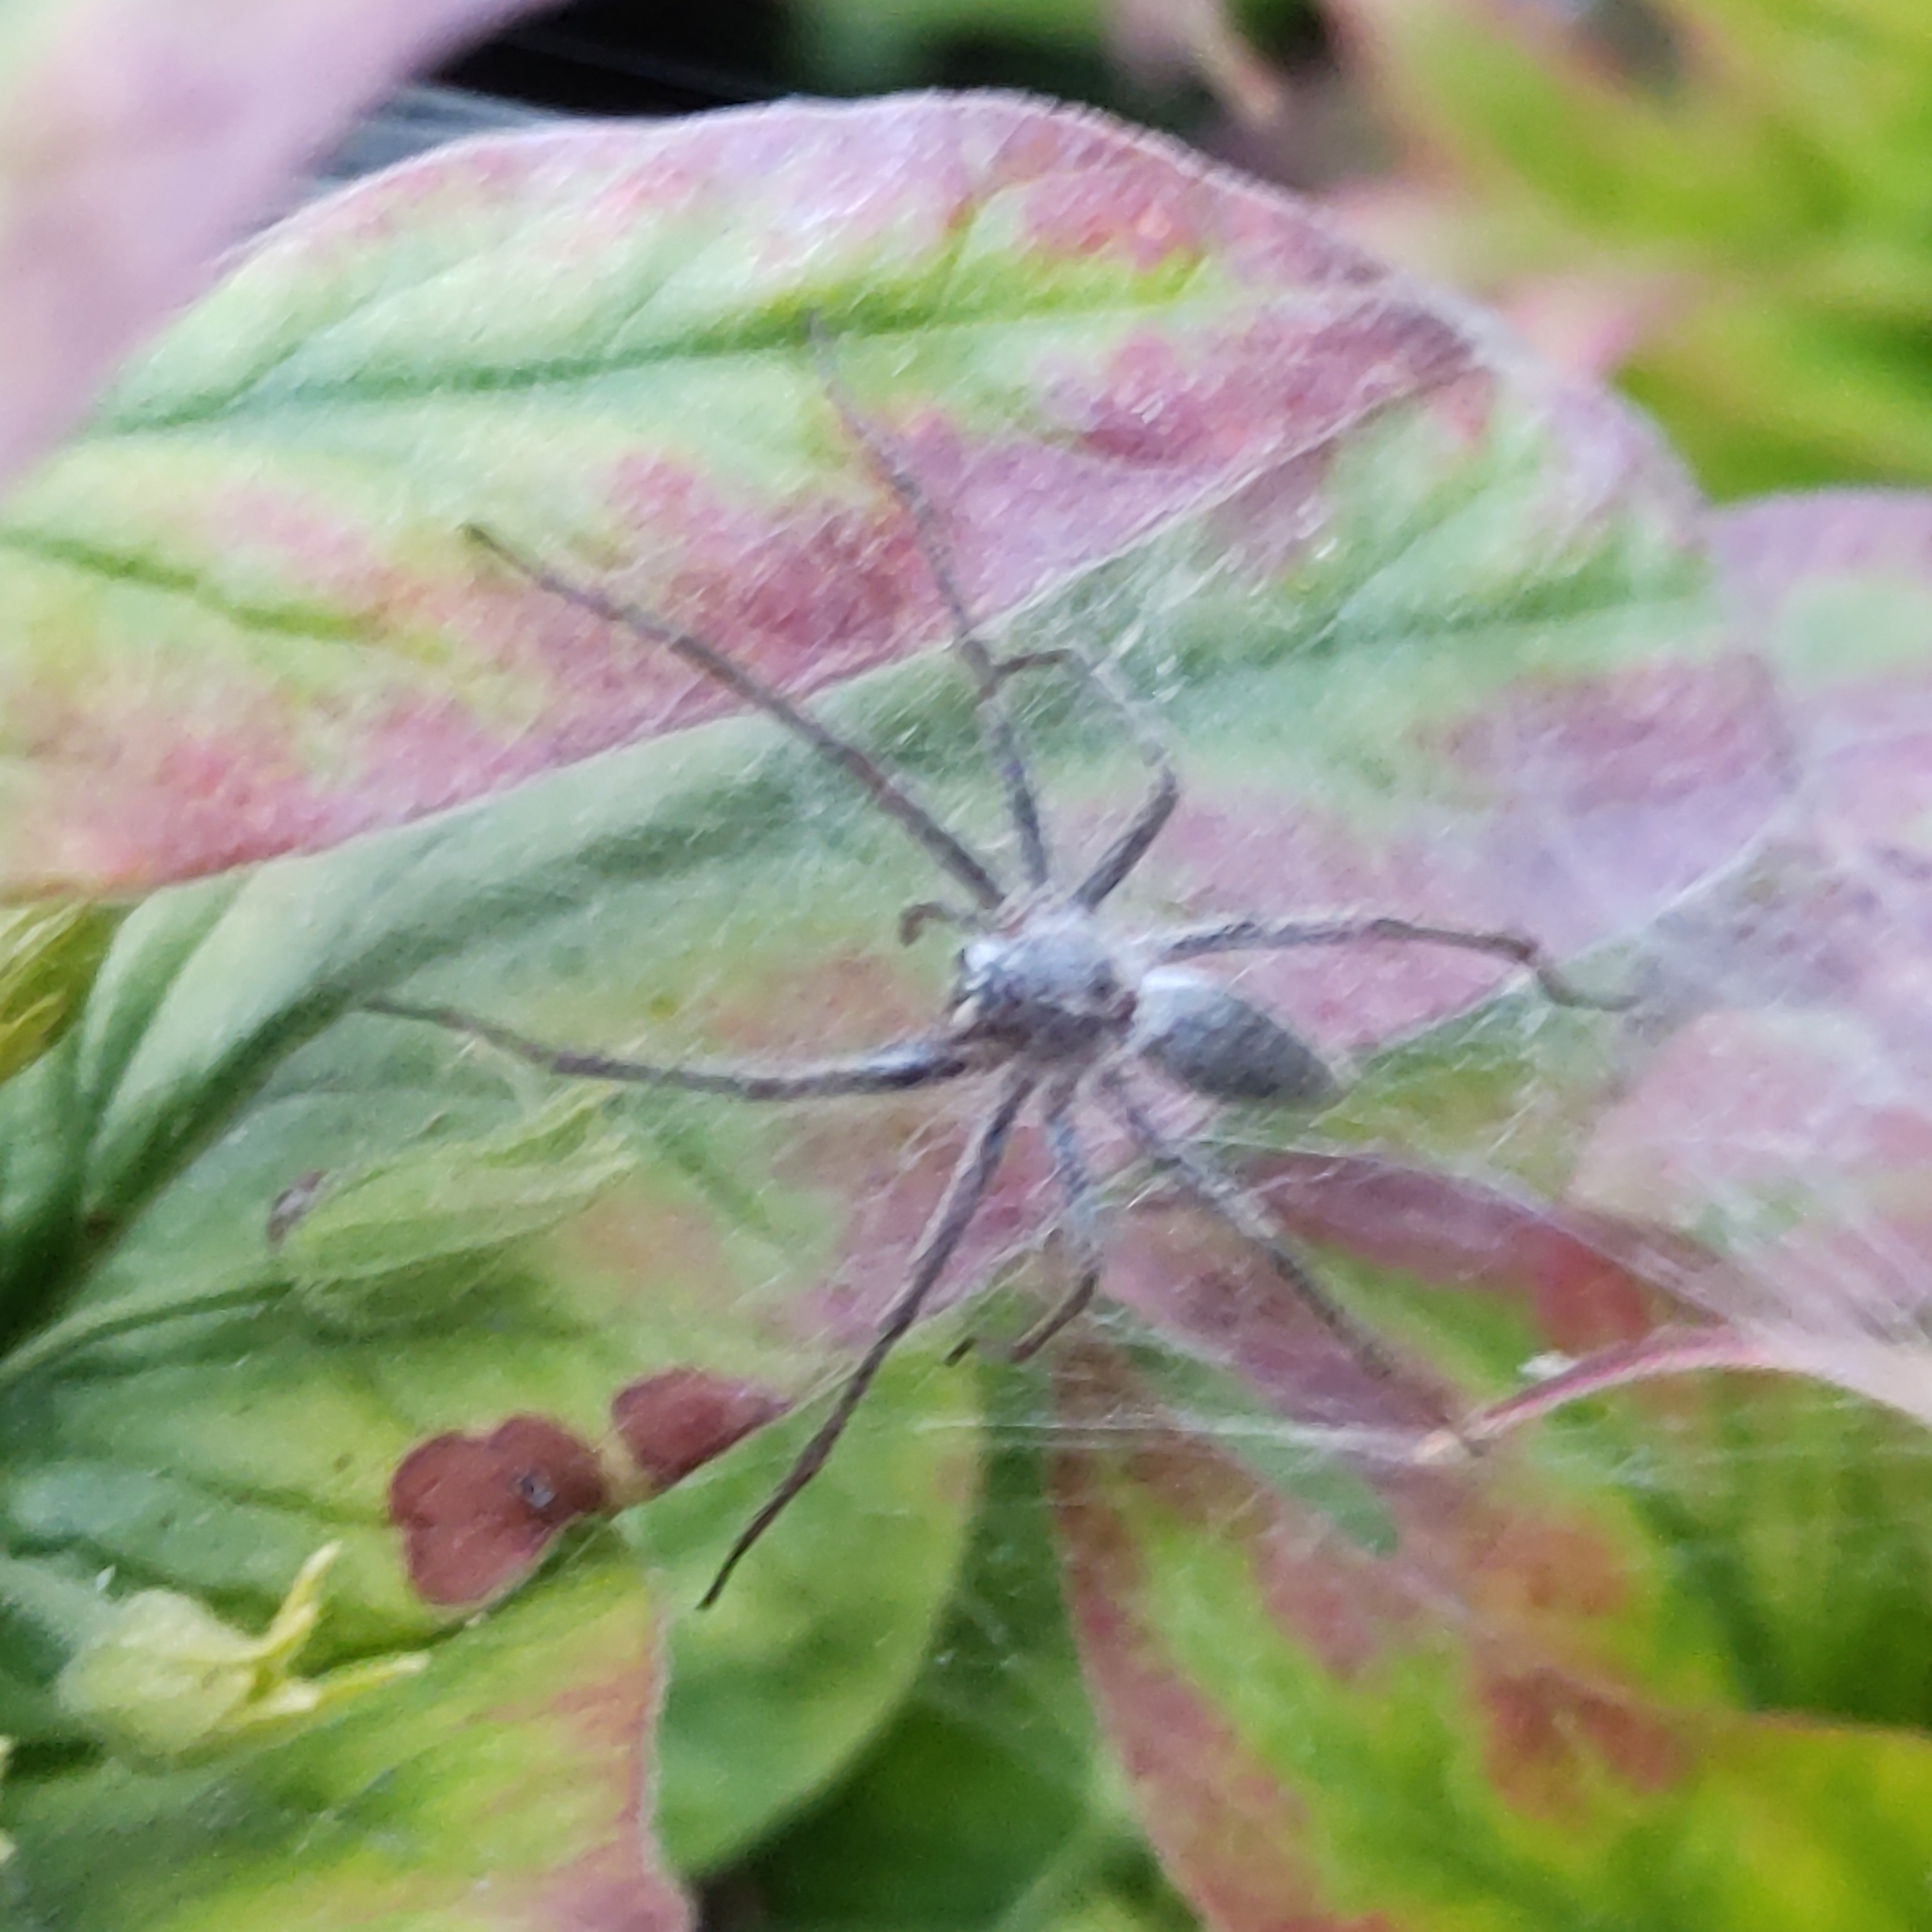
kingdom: Animalia
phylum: Arthropoda
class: Arachnida
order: Araneae
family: Pisauridae
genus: Pisaura
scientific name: Pisaura mirabilis
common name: Tent spider
